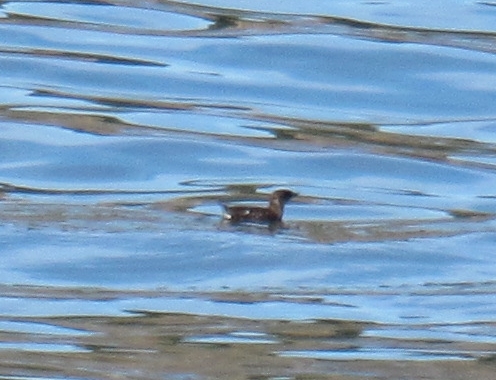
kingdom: Animalia
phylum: Chordata
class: Aves
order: Charadriiformes
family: Alcidae
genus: Brachyramphus
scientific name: Brachyramphus marmoratus
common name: Marbled murrelet
